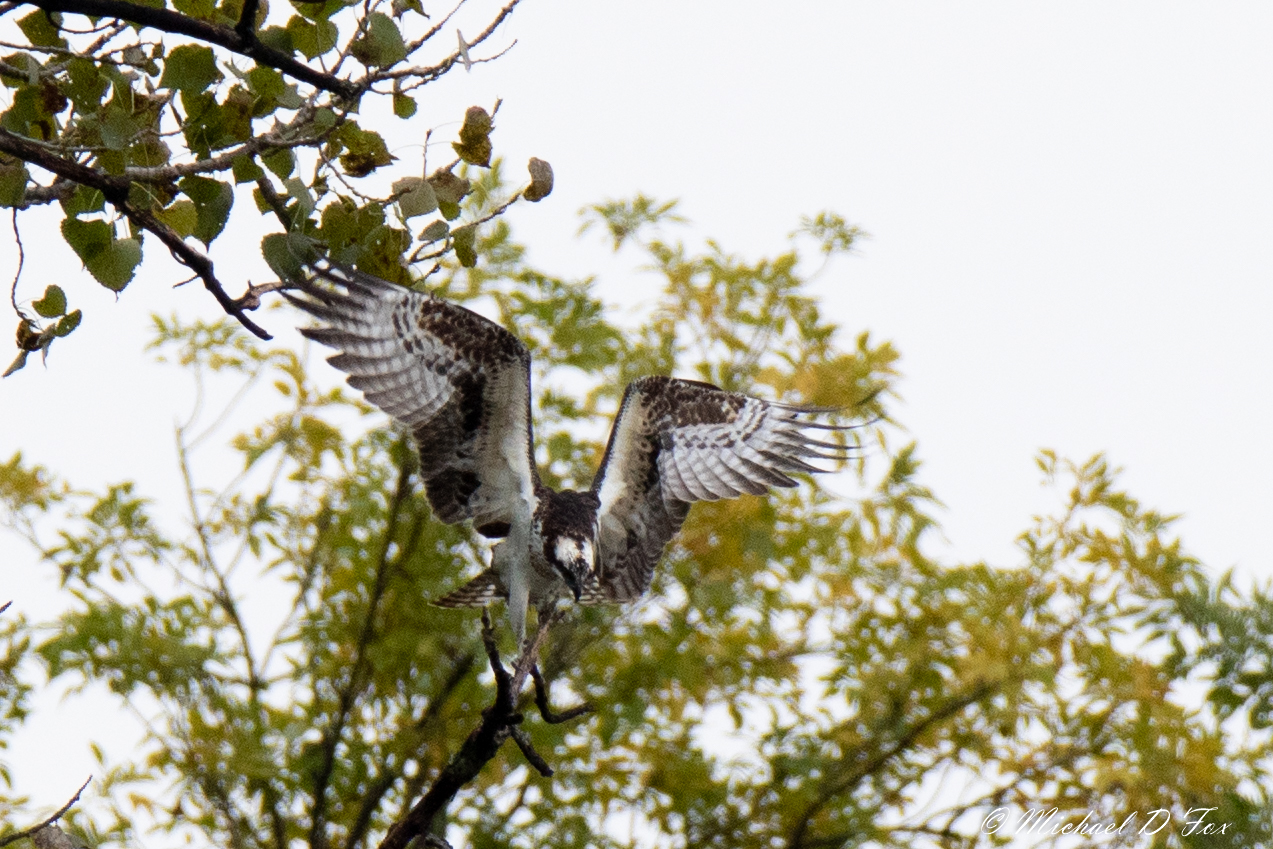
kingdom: Animalia
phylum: Chordata
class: Aves
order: Accipitriformes
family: Pandionidae
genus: Pandion
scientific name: Pandion haliaetus
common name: Osprey
